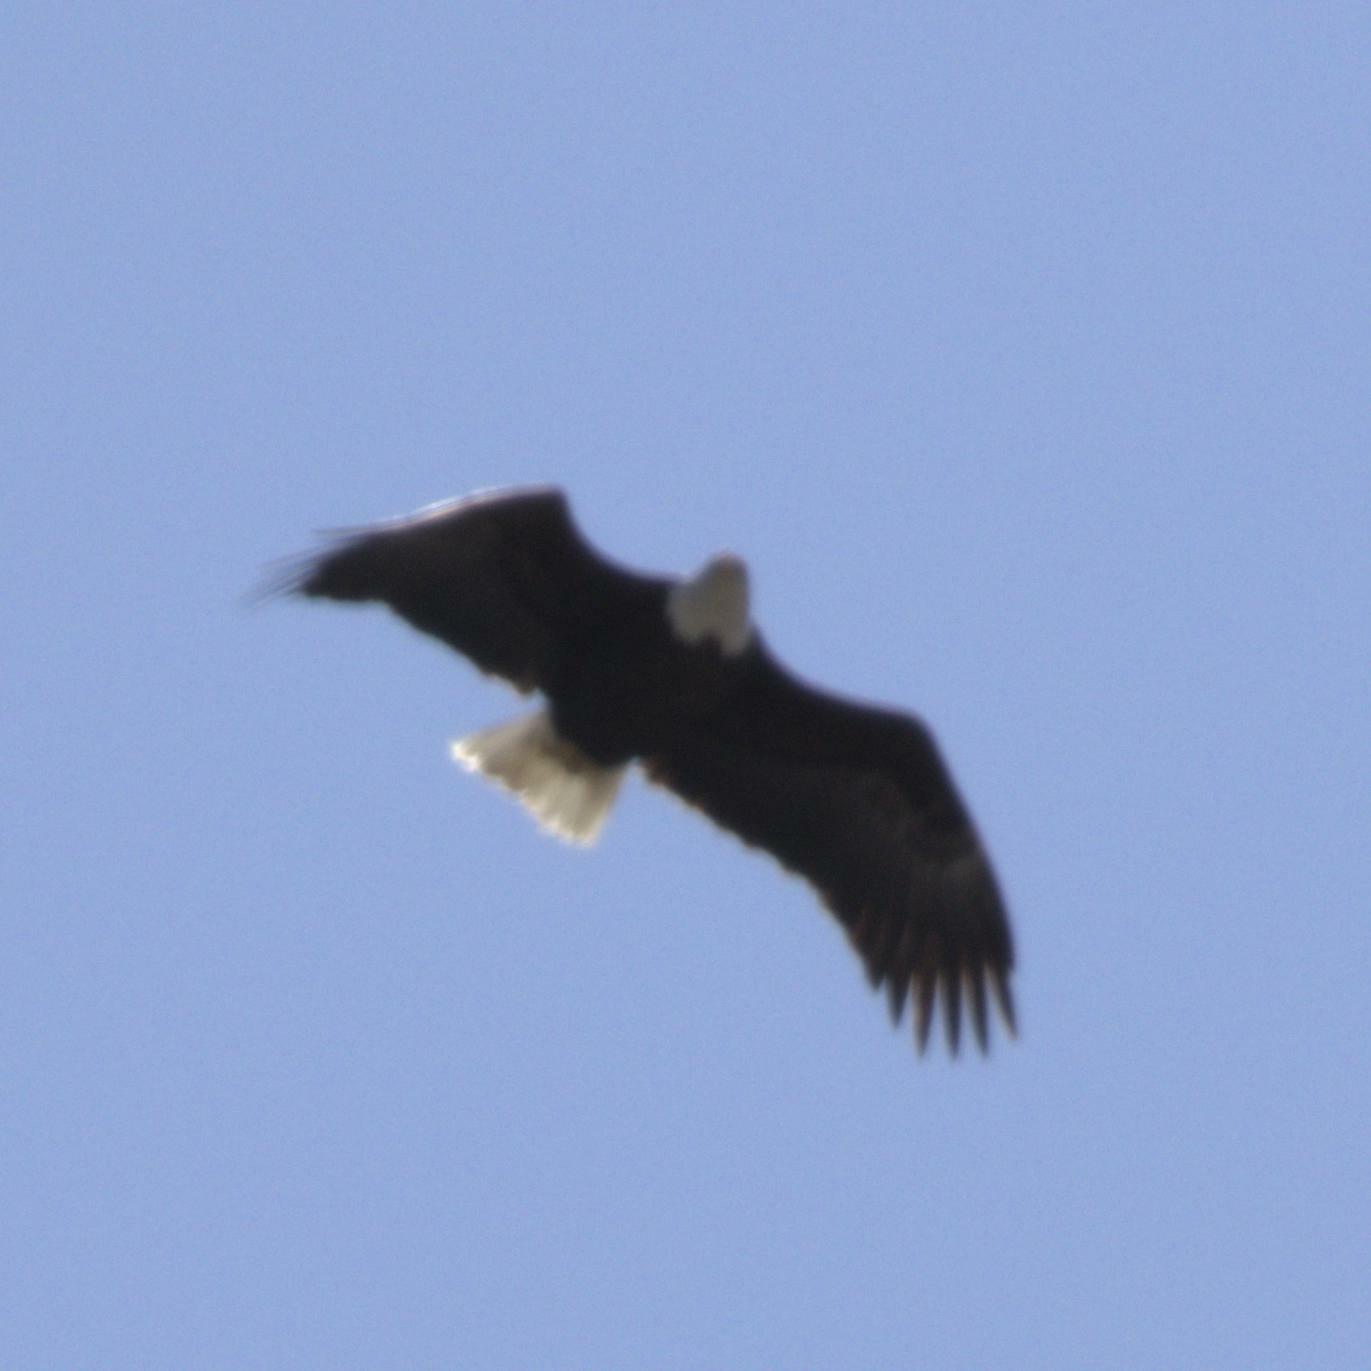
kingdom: Animalia
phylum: Chordata
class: Aves
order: Accipitriformes
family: Accipitridae
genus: Haliaeetus
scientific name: Haliaeetus leucocephalus
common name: Bald eagle
